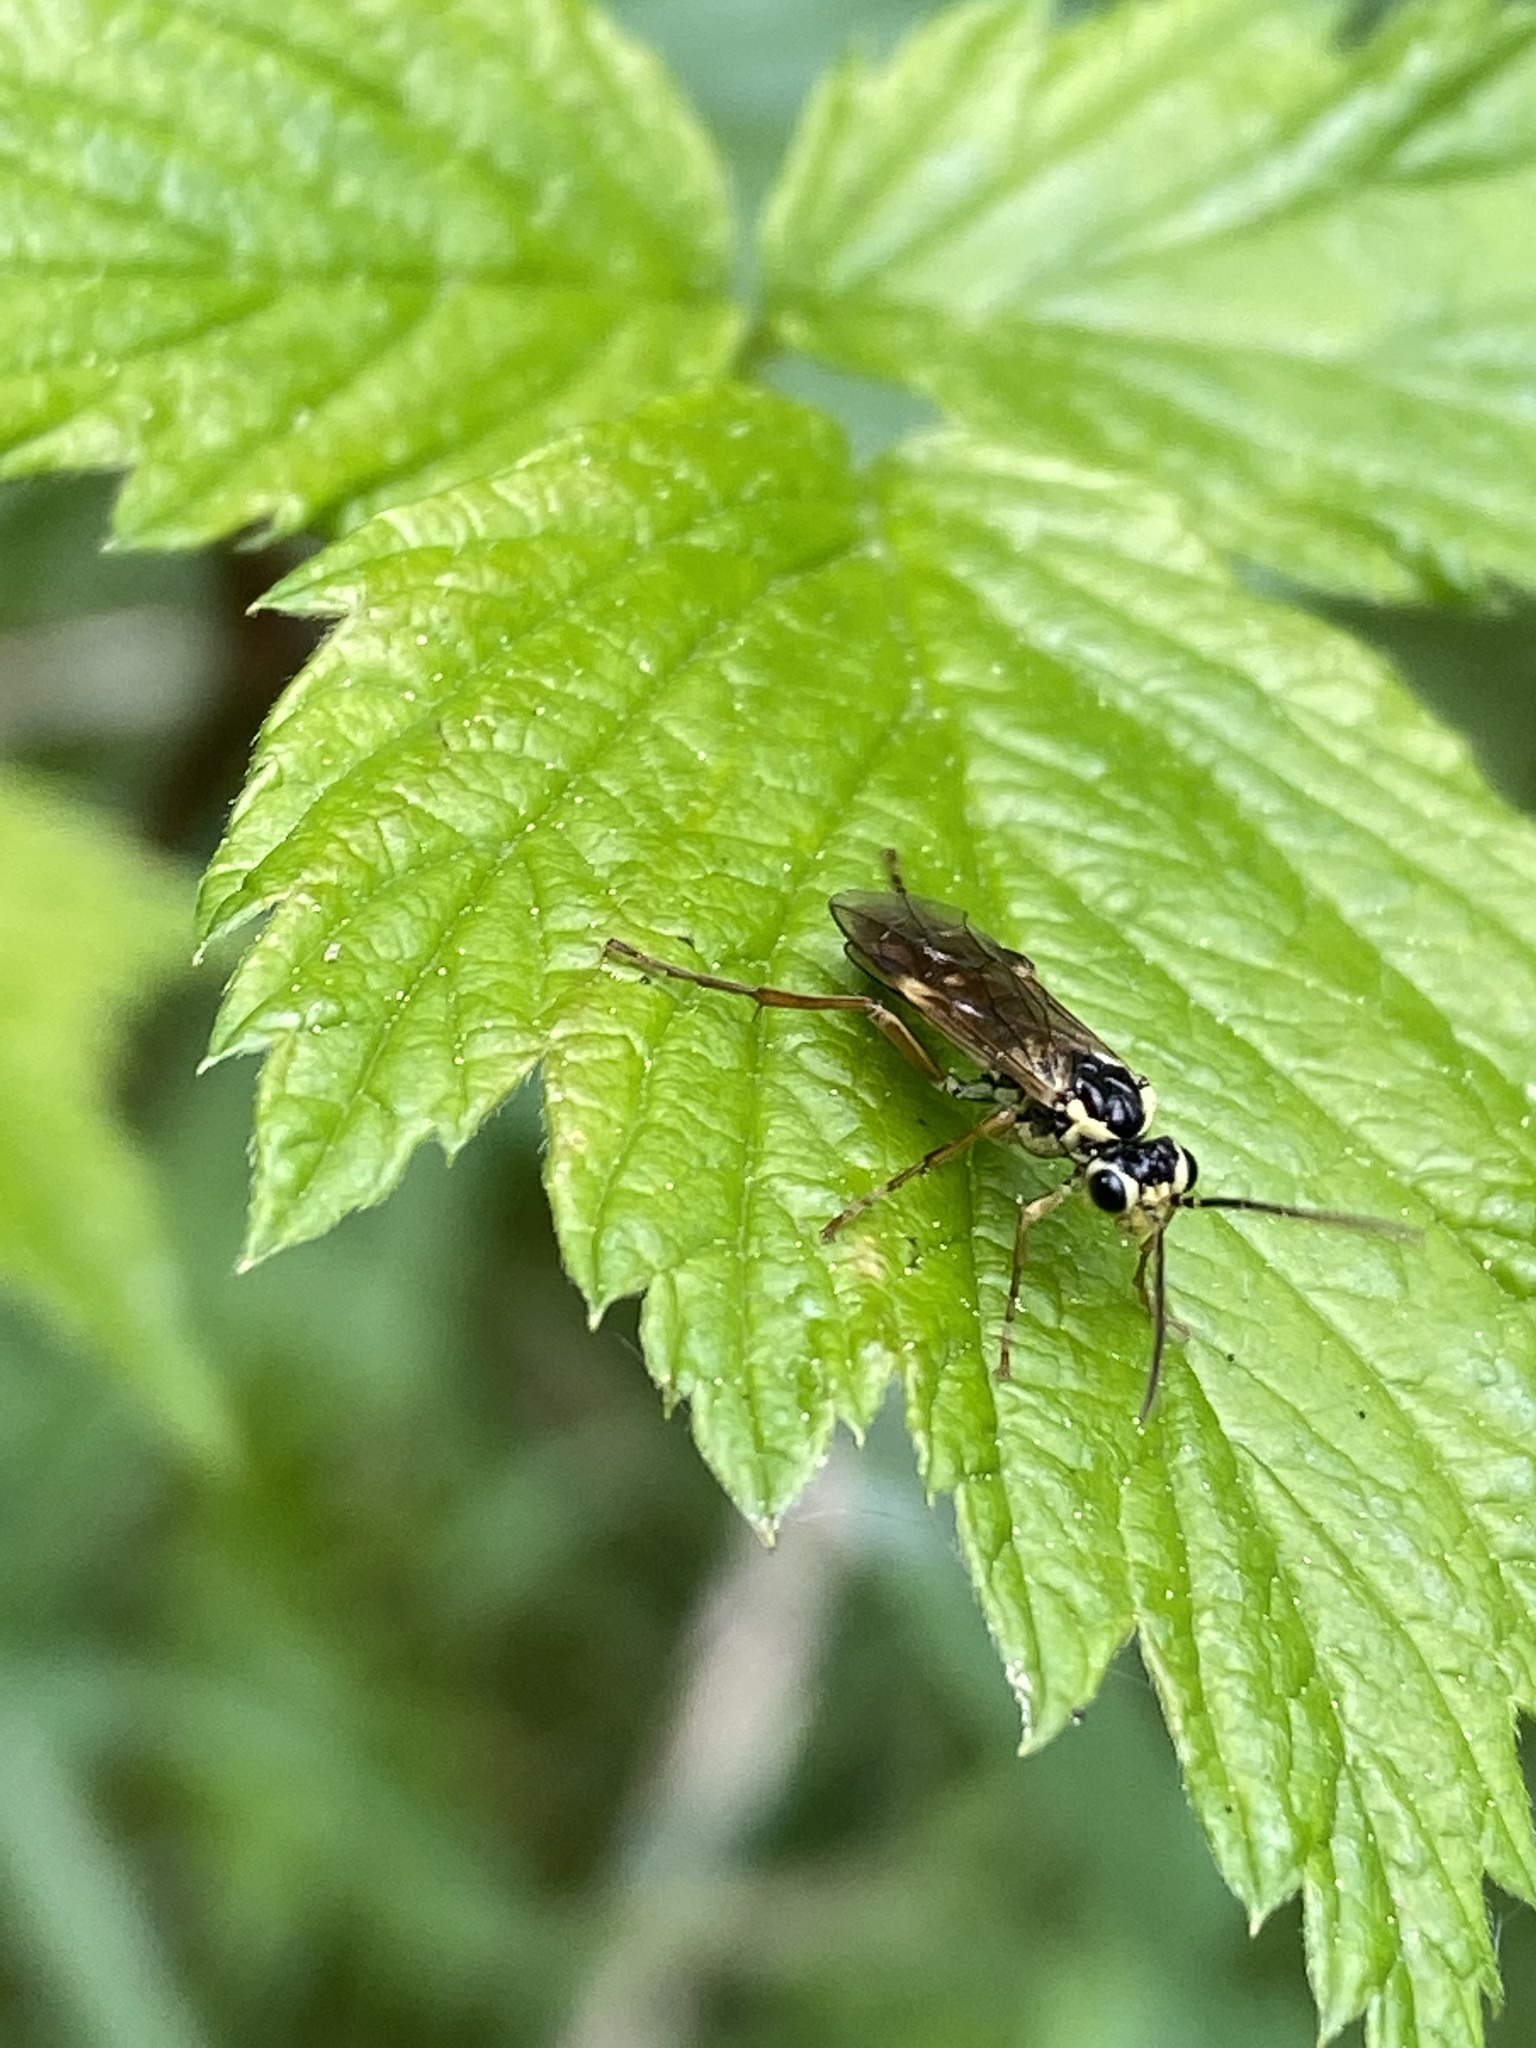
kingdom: Animalia
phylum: Arthropoda
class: Insecta
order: Hymenoptera
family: Tenthredinidae
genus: Aglaostigma
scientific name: Aglaostigma fulvipes
